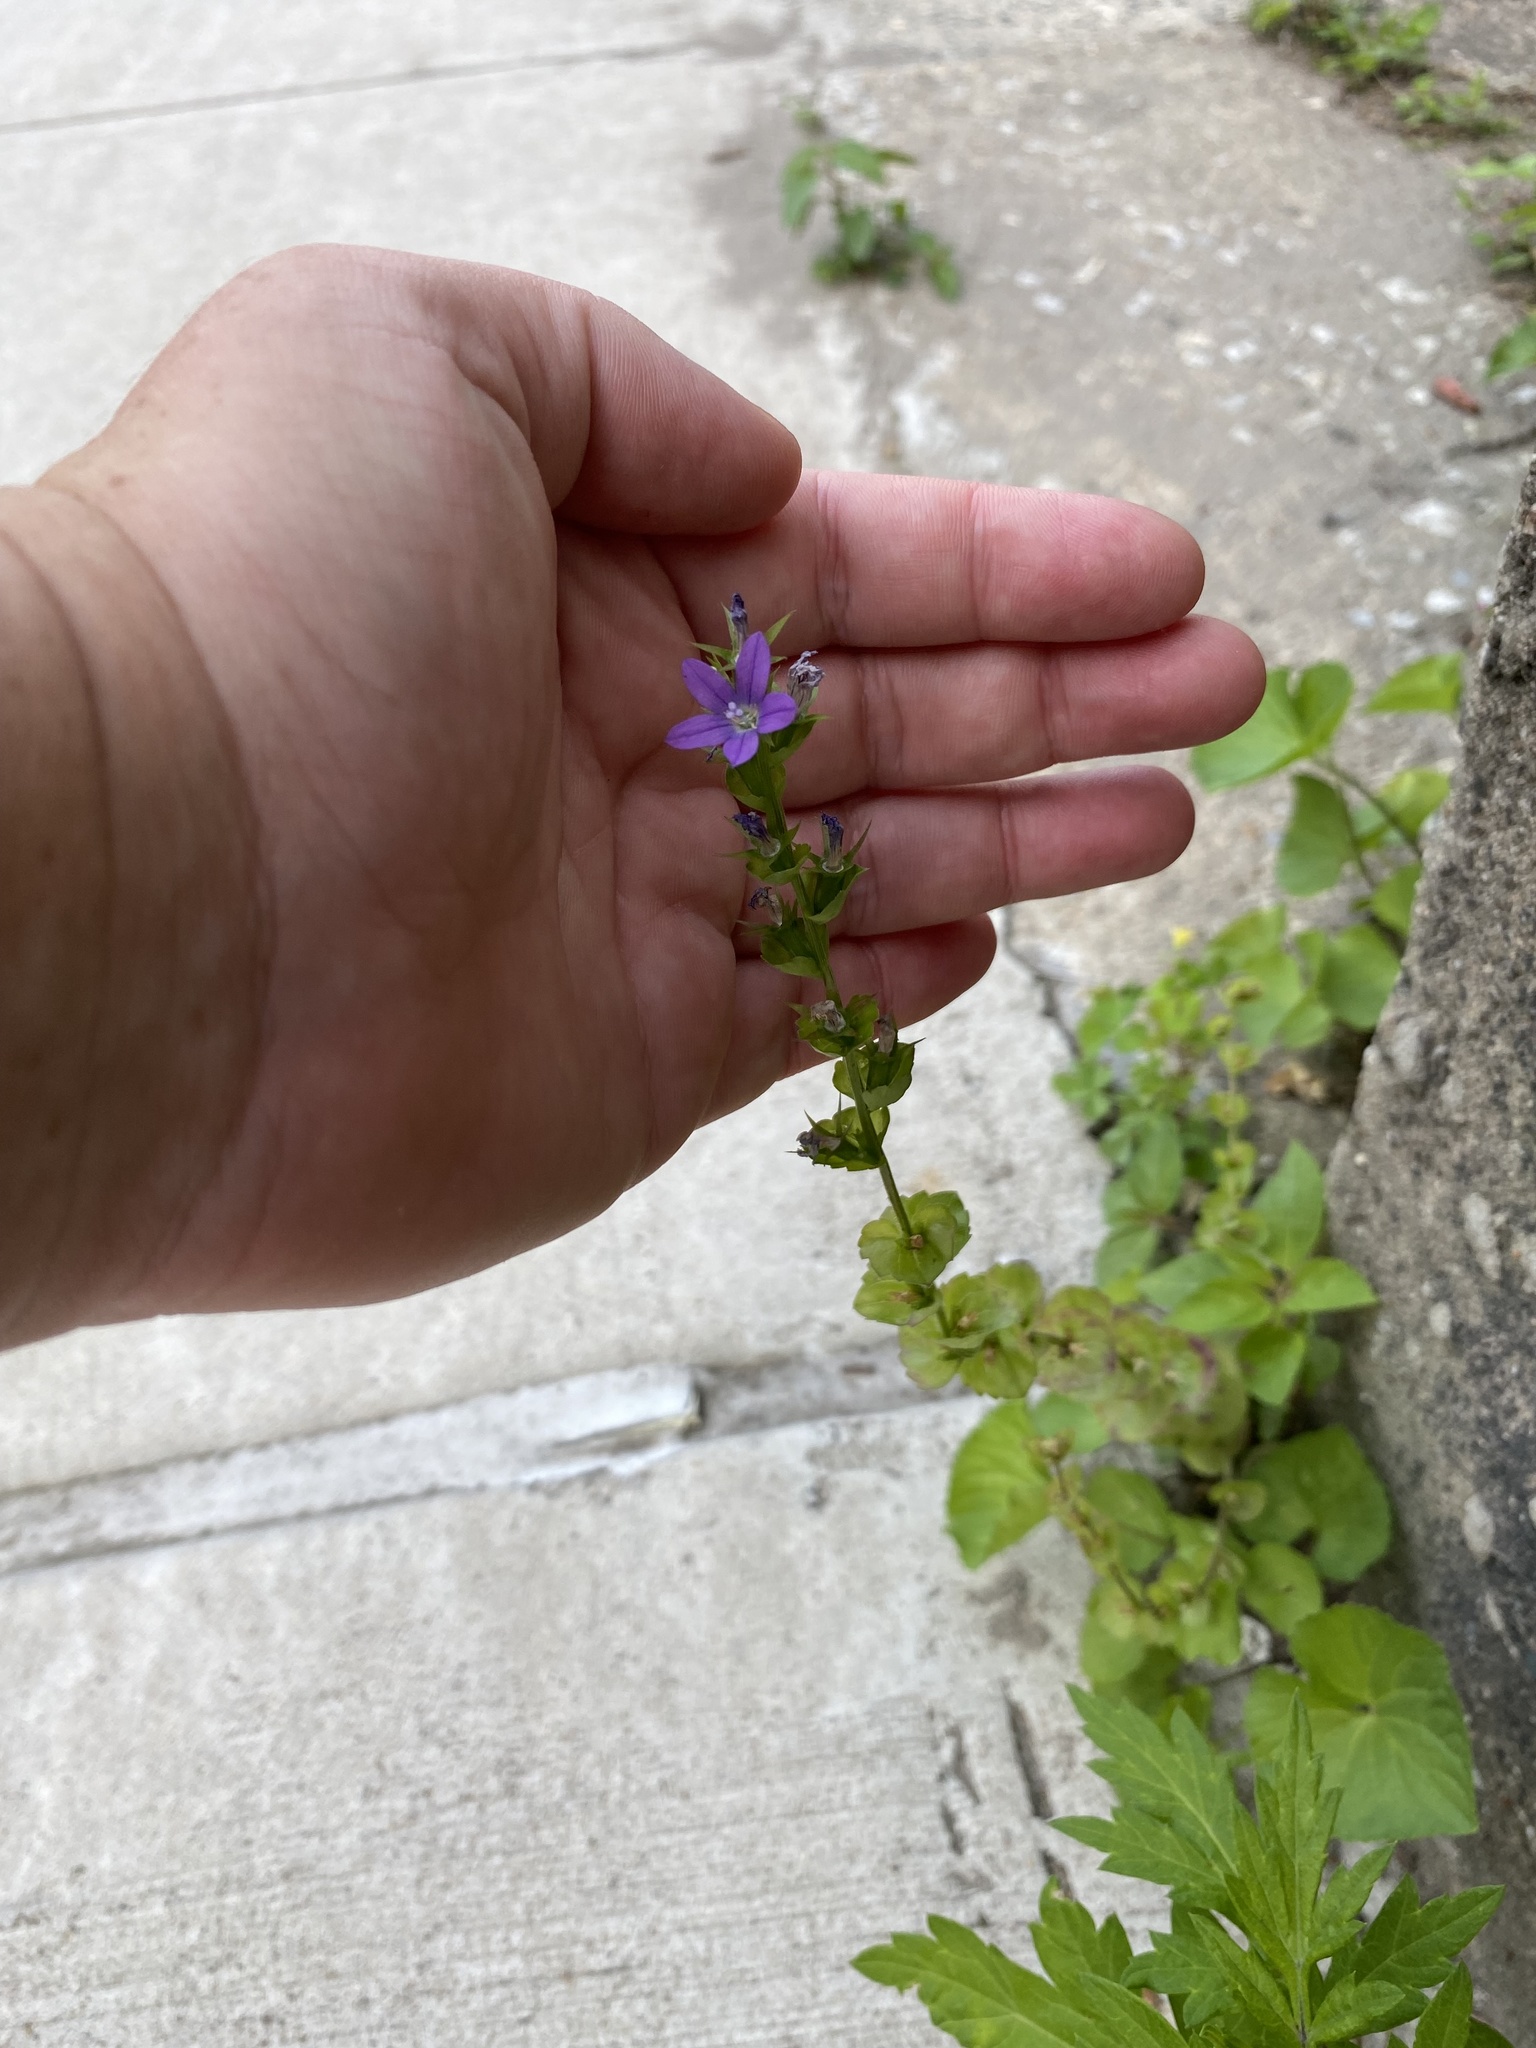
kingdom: Plantae
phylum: Tracheophyta
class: Magnoliopsida
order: Asterales
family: Campanulaceae
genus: Triodanis
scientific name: Triodanis perfoliata
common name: Clasping venus' looking-glass
